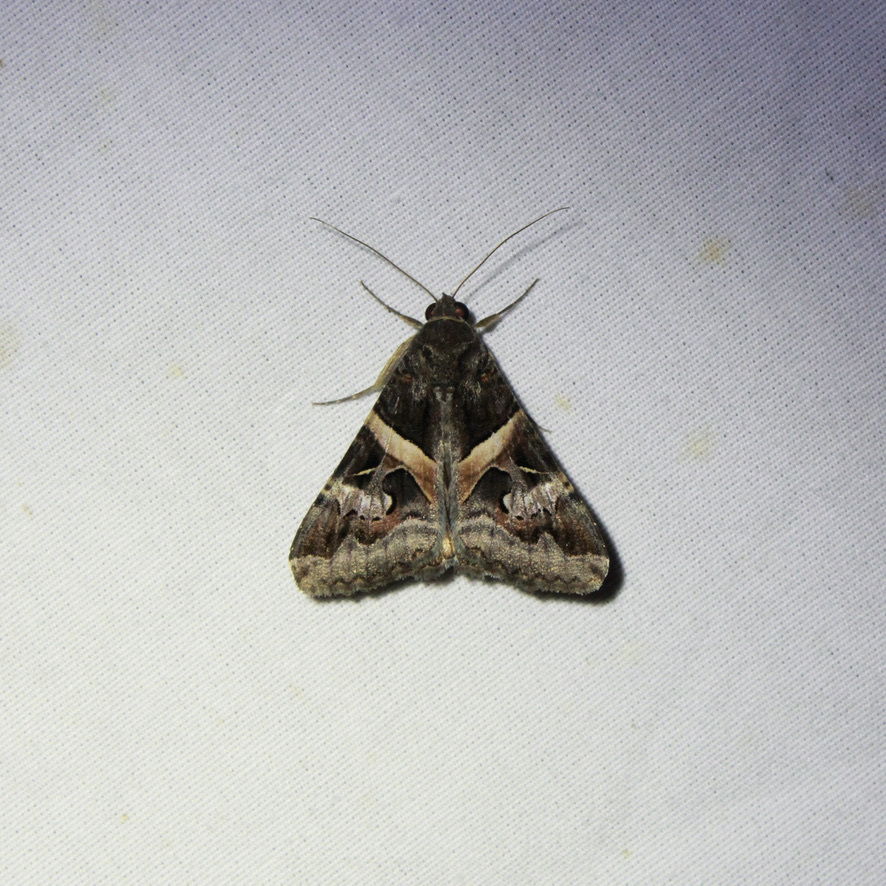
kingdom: Animalia
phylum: Arthropoda
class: Insecta
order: Lepidoptera
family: Erebidae
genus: Melipotis
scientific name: Melipotis indomita
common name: Moth
